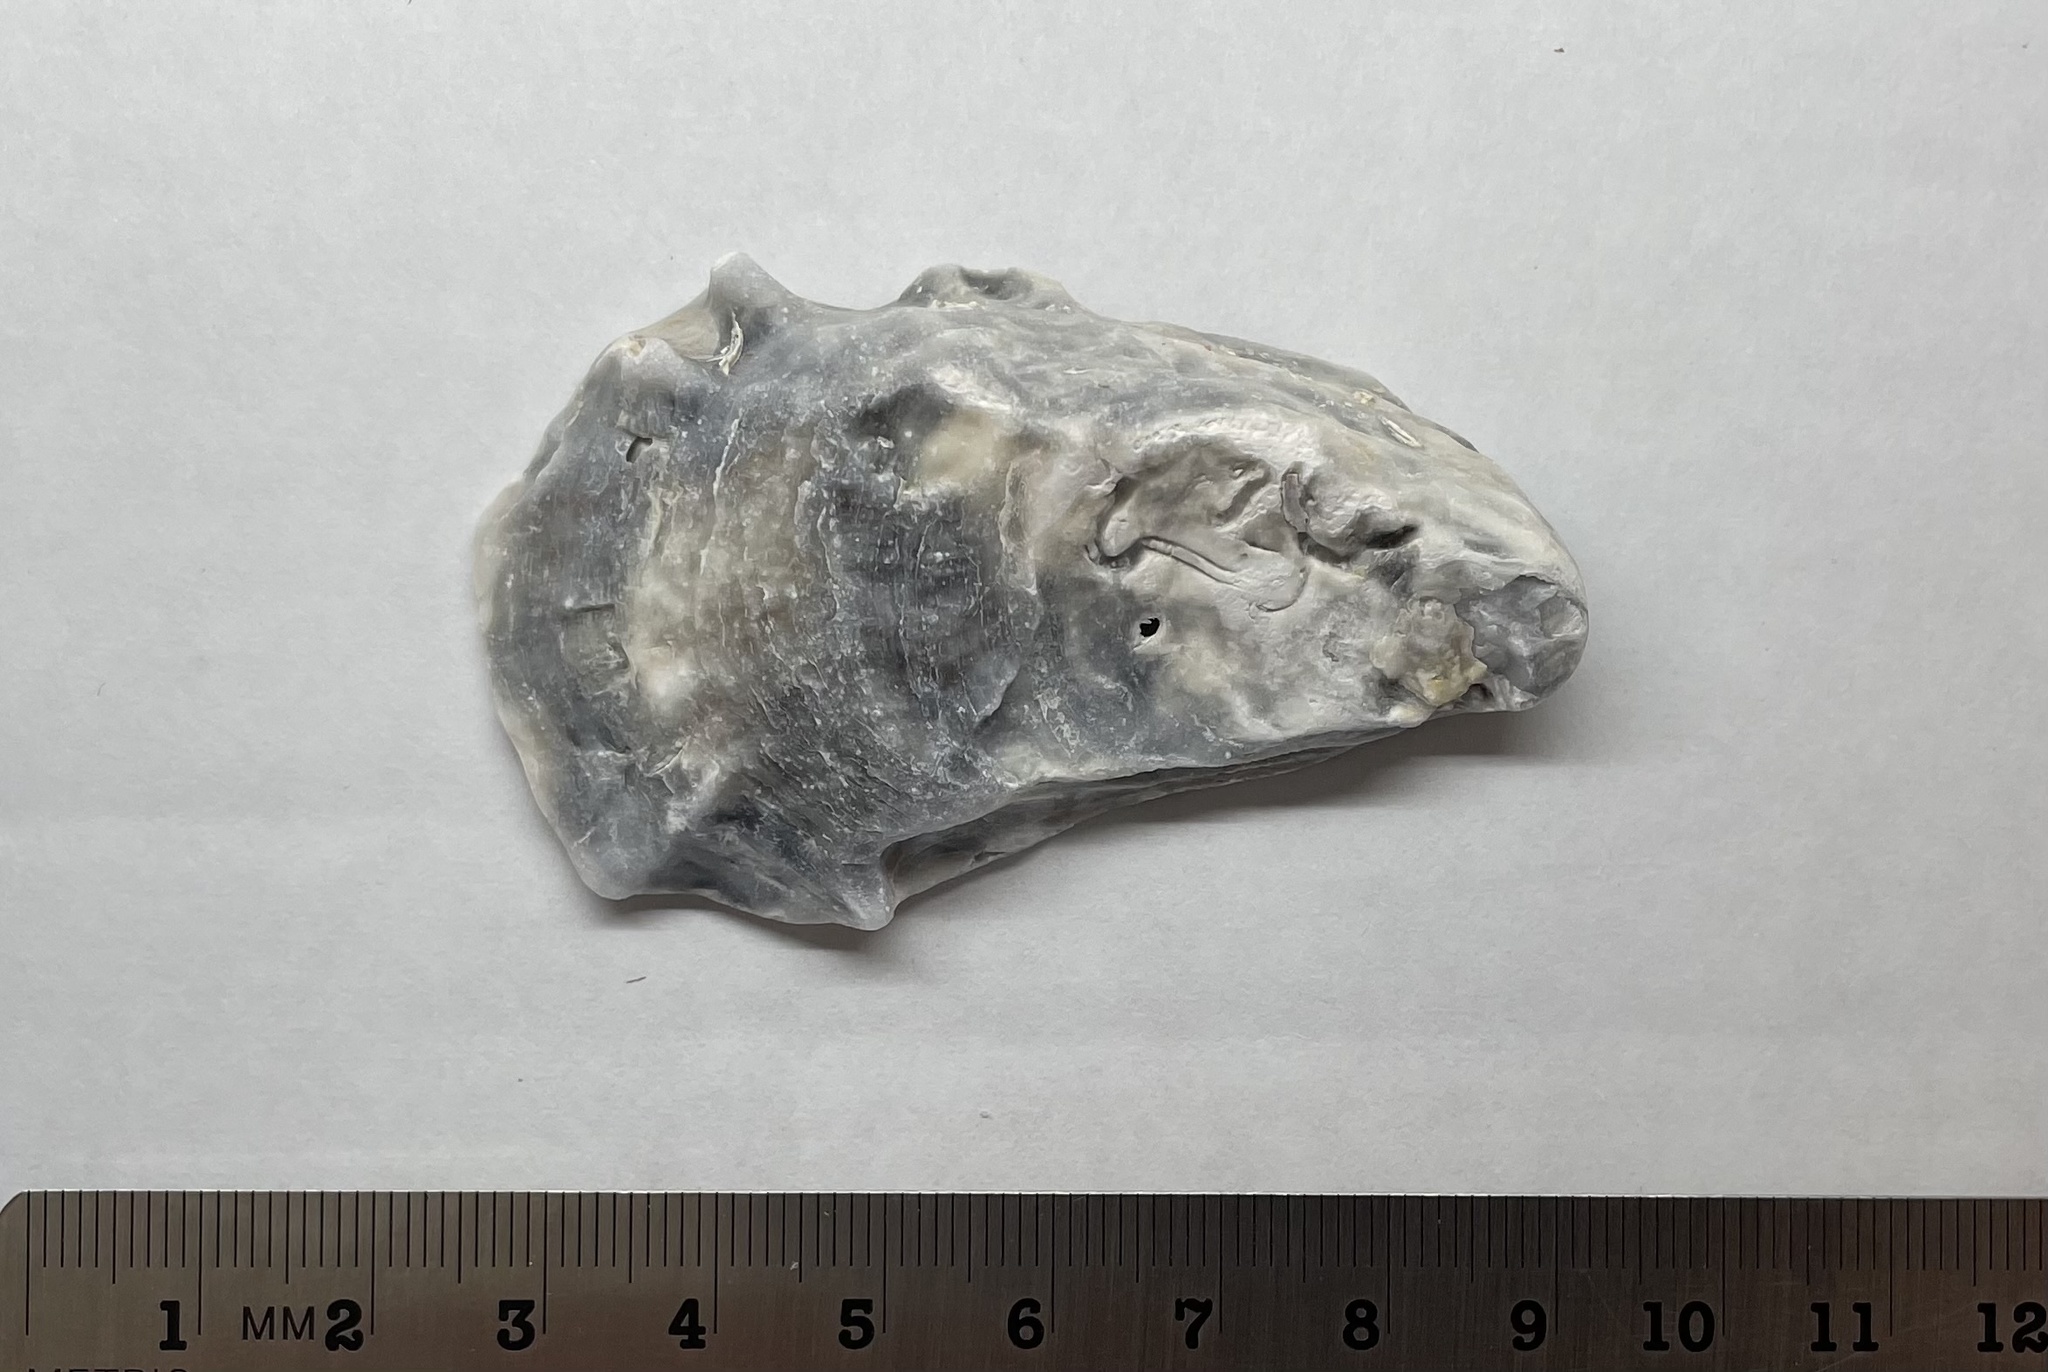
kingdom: Animalia
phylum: Mollusca
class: Bivalvia
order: Ostreida
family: Ostreidae
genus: Crassostrea
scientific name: Crassostrea virginica
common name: American oyster
